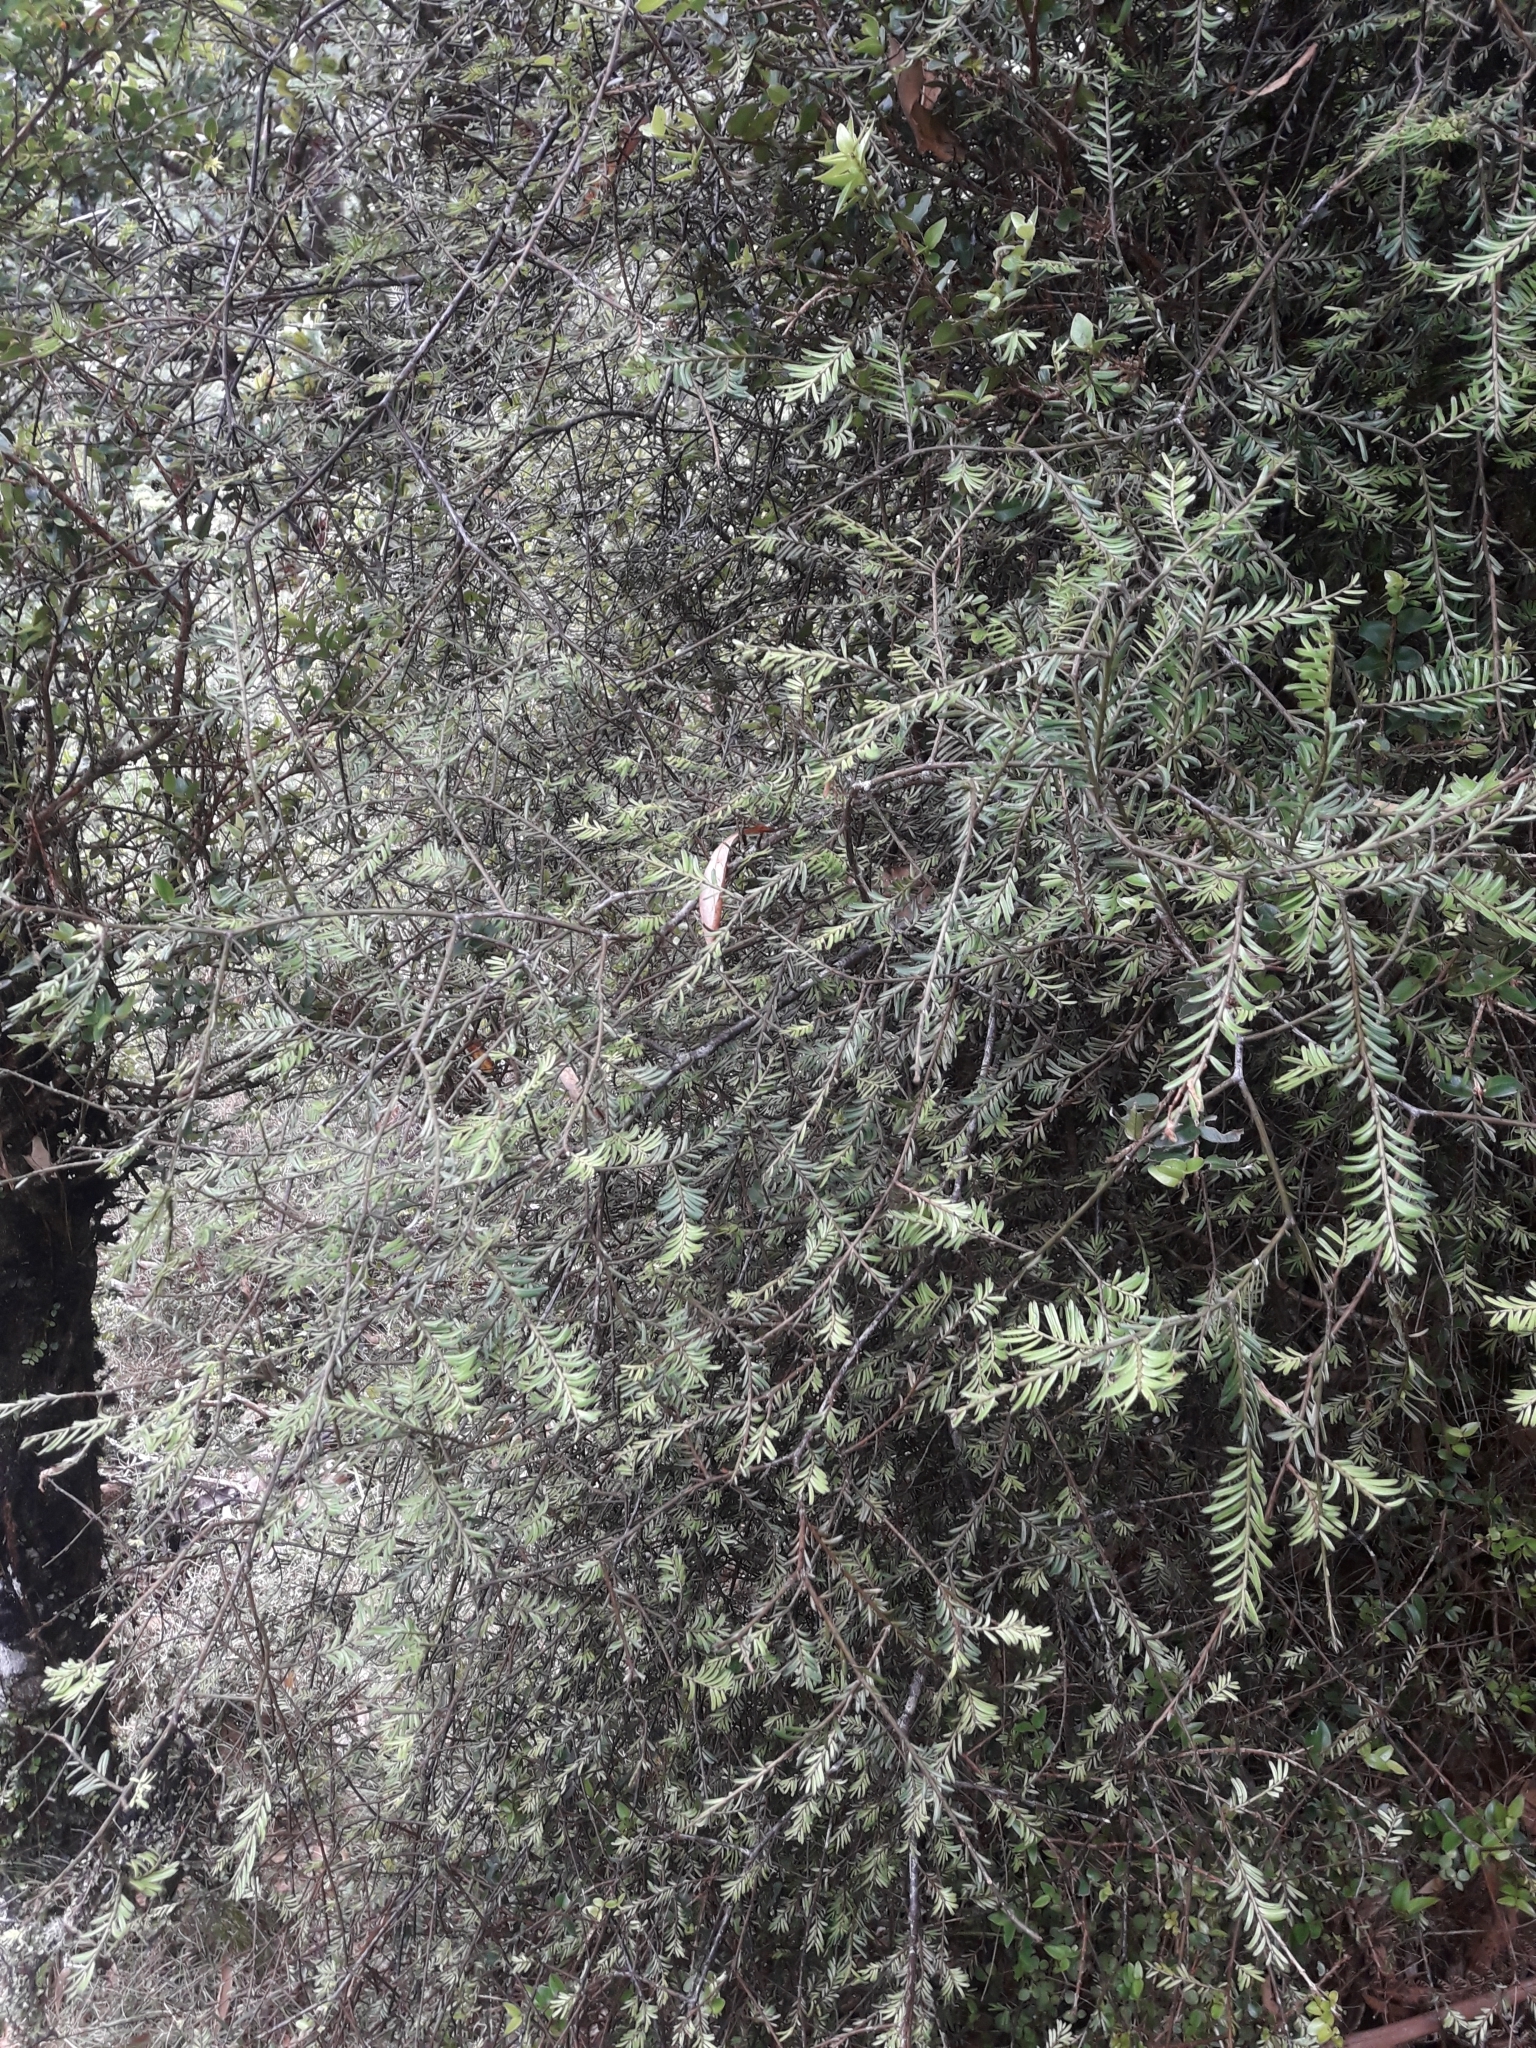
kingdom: Plantae
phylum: Tracheophyta
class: Pinopsida
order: Pinales
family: Podocarpaceae
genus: Prumnopitys
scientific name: Prumnopitys taxifolia
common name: Matai
